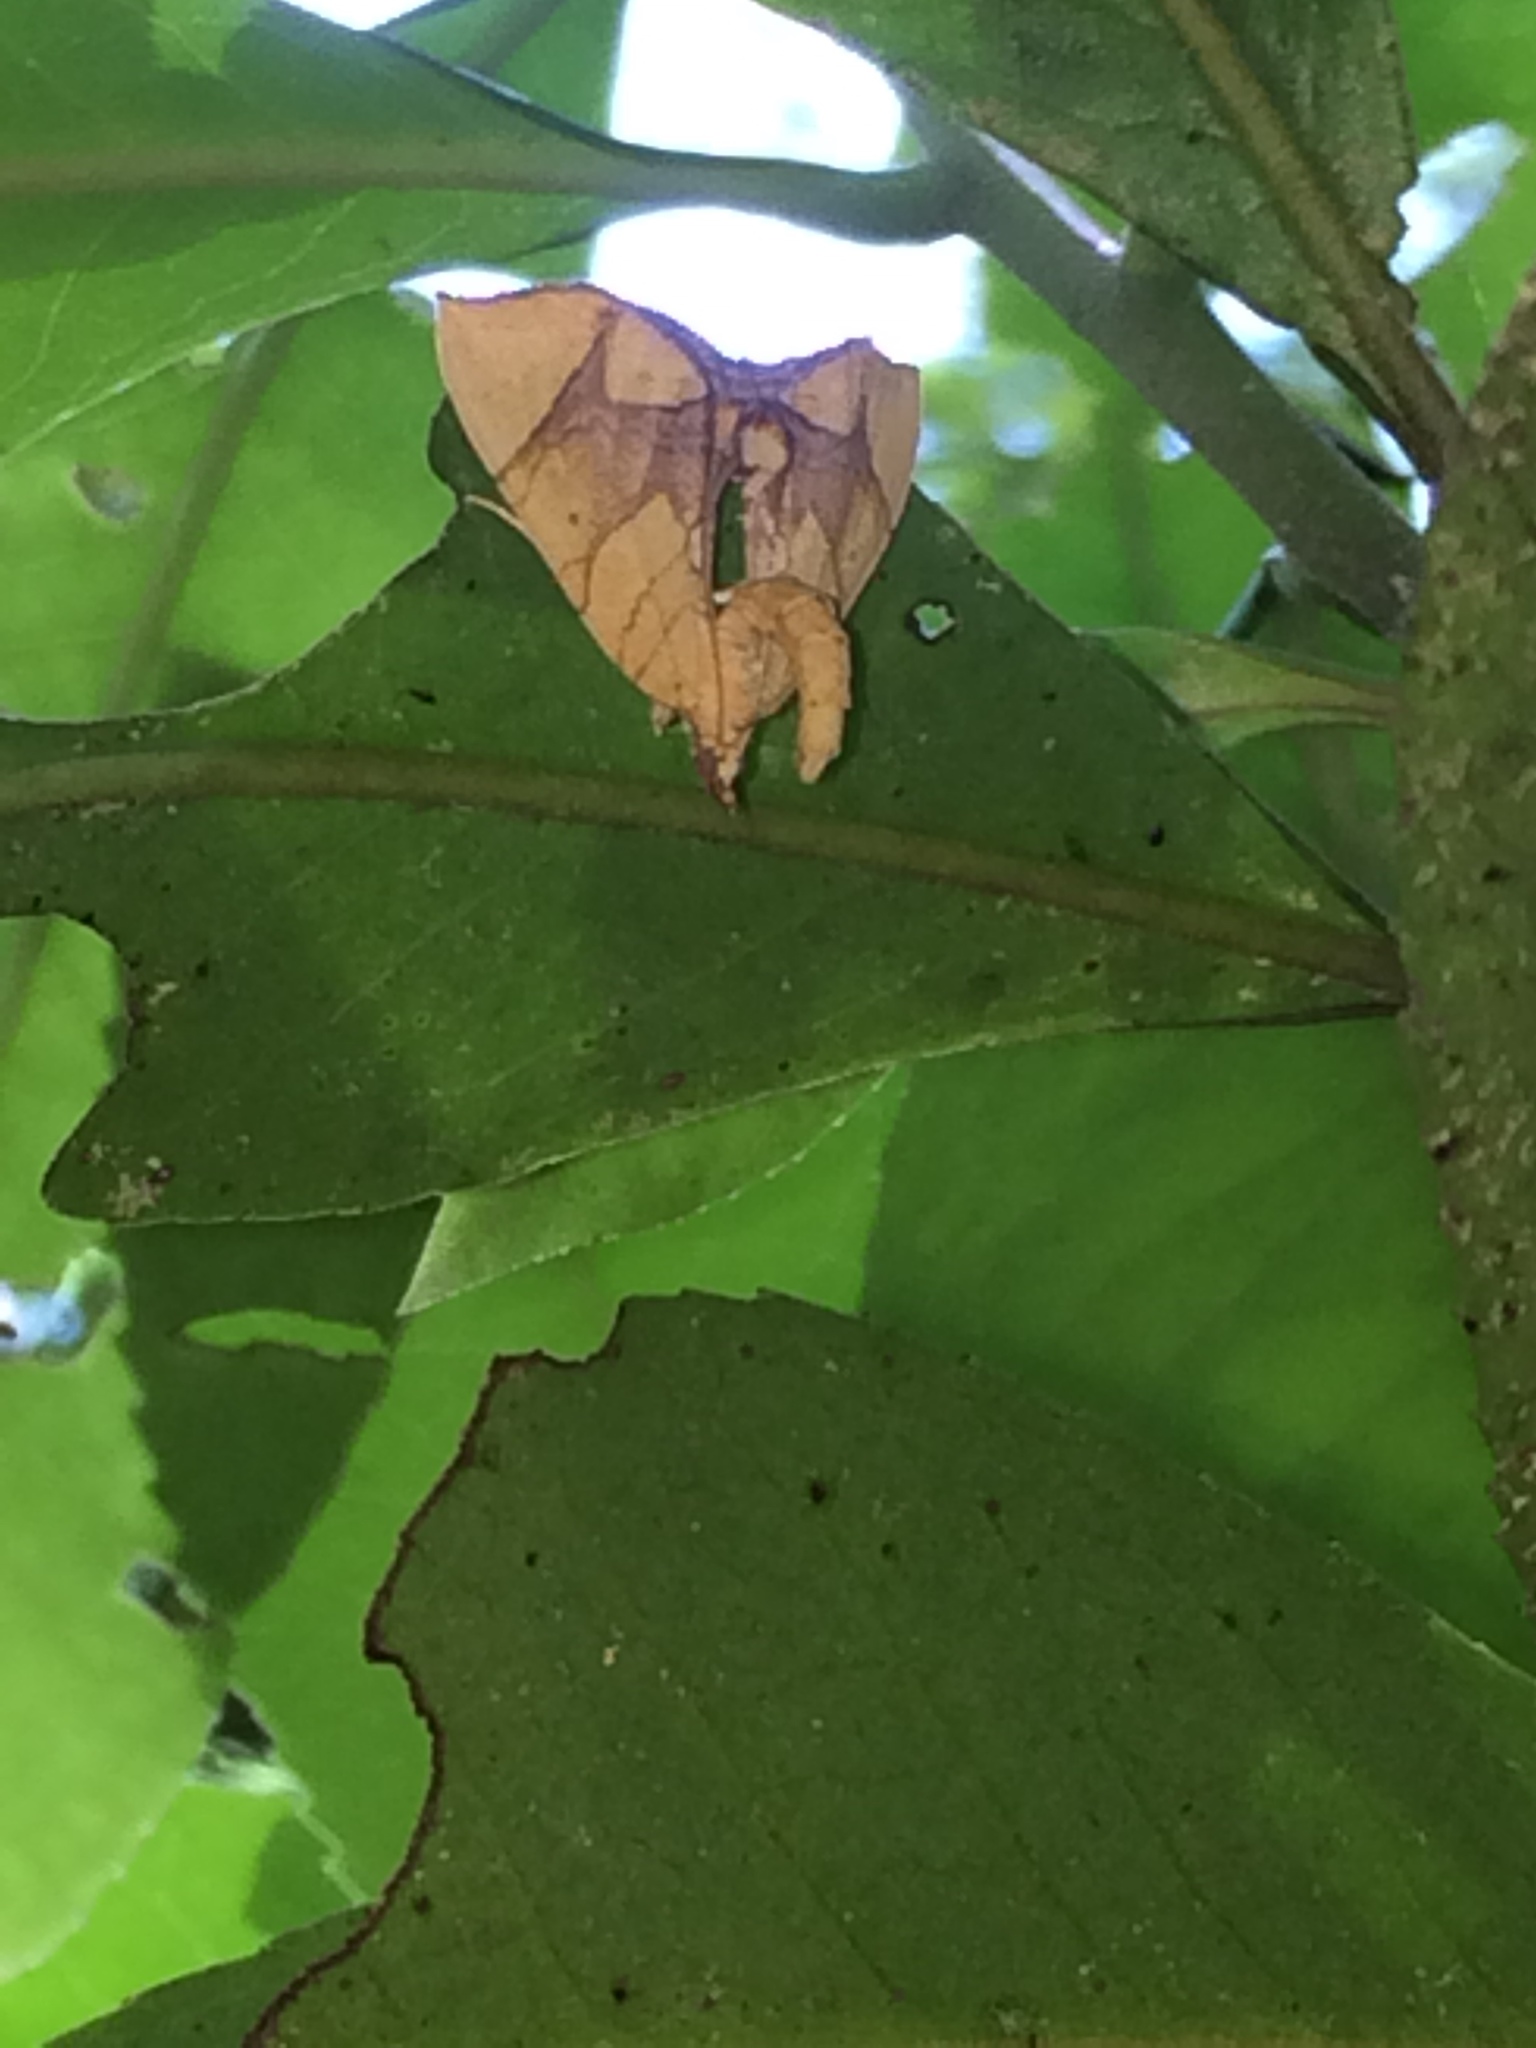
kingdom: Animalia
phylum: Arthropoda
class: Insecta
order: Lepidoptera
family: Geometridae
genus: Eulithis
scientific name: Eulithis
